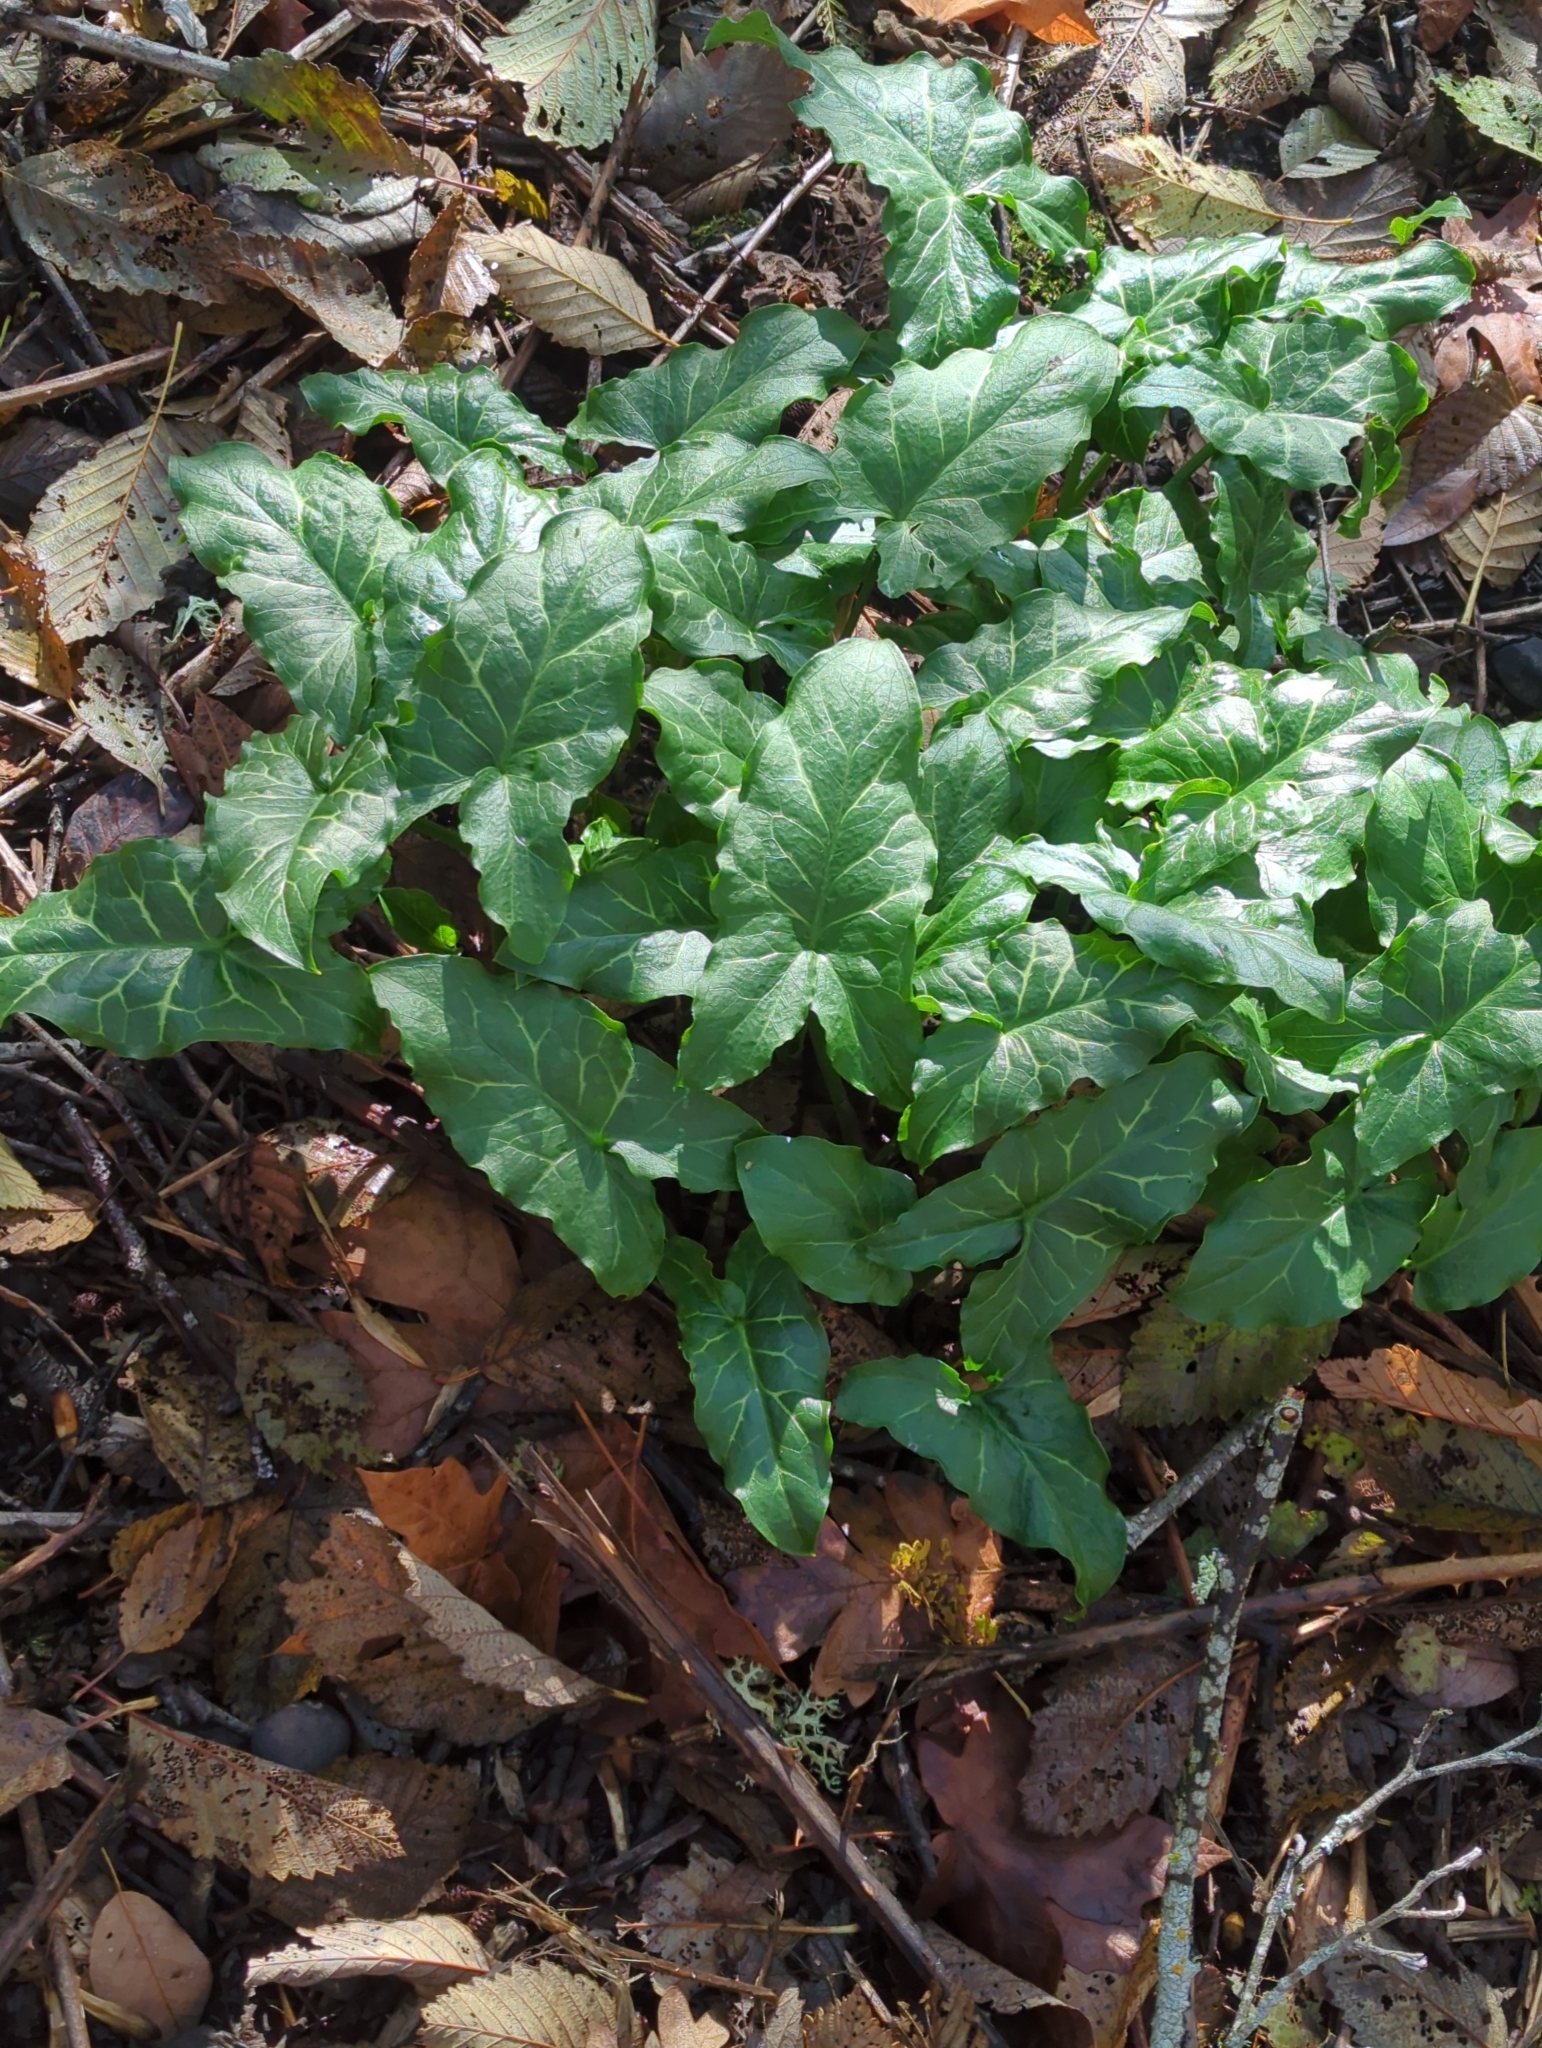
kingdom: Plantae
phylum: Tracheophyta
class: Liliopsida
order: Alismatales
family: Araceae
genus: Arum
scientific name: Arum italicum
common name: Italian lords-and-ladies
